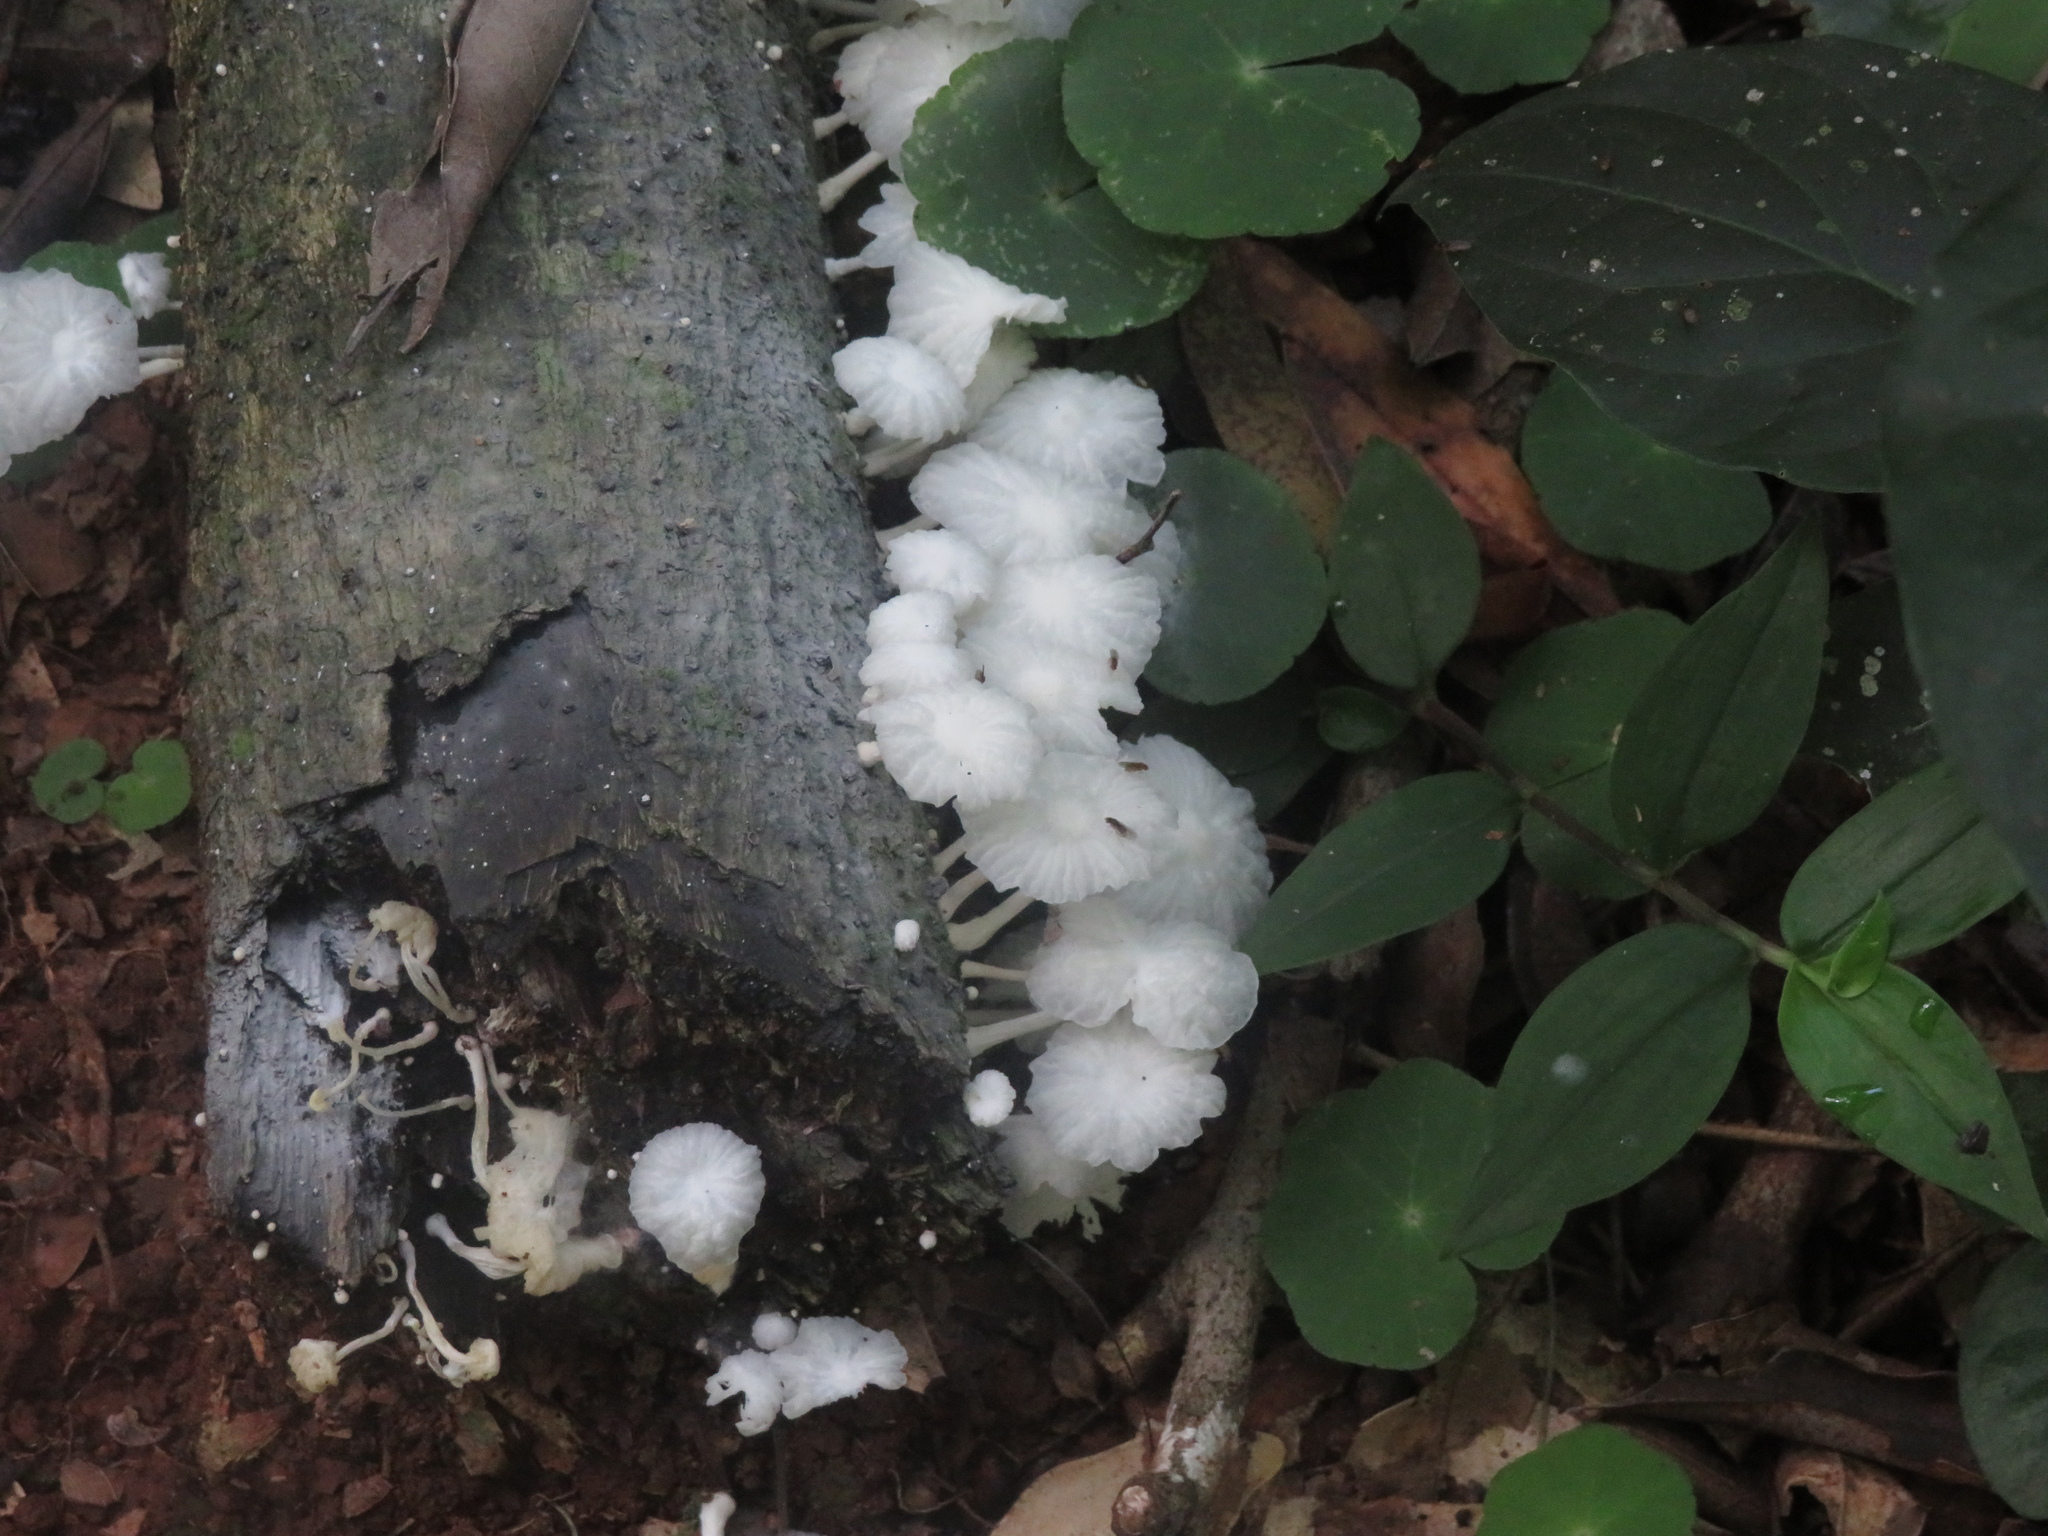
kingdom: Fungi
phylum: Basidiomycota
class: Agaricomycetes
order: Agaricales
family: Psathyrellaceae
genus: Coprinellus
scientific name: Coprinellus disseminatus
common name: Fairies' bonnets
